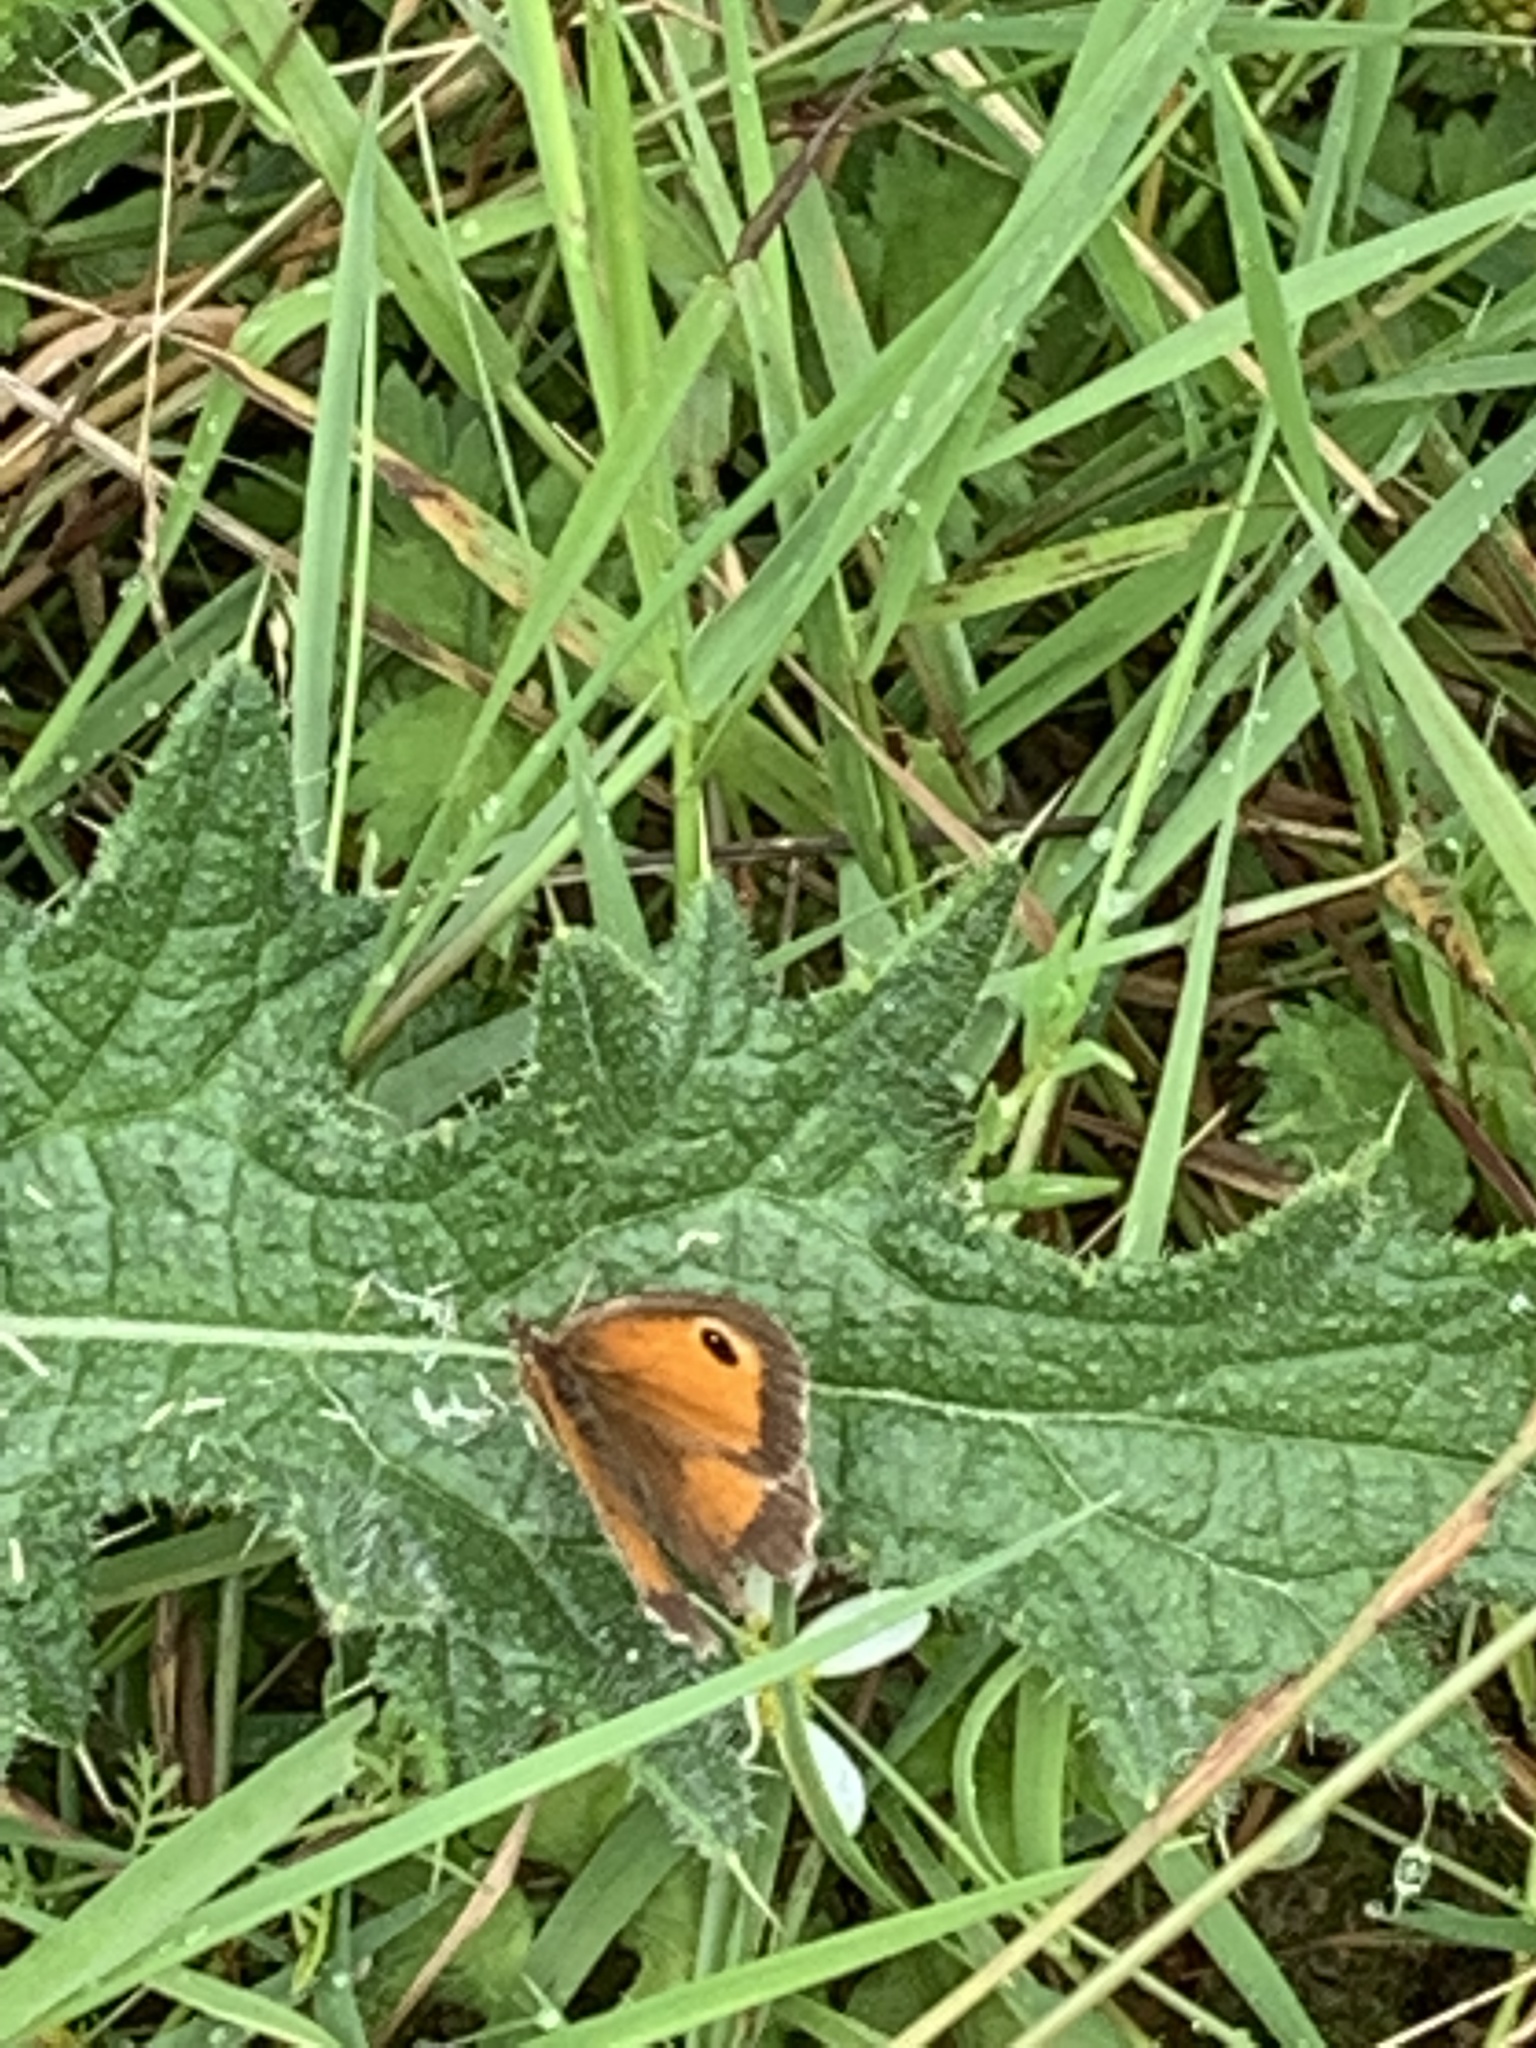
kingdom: Animalia
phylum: Arthropoda
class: Insecta
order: Lepidoptera
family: Nymphalidae
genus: Pyronia
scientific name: Pyronia tithonus
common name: Gatekeeper
